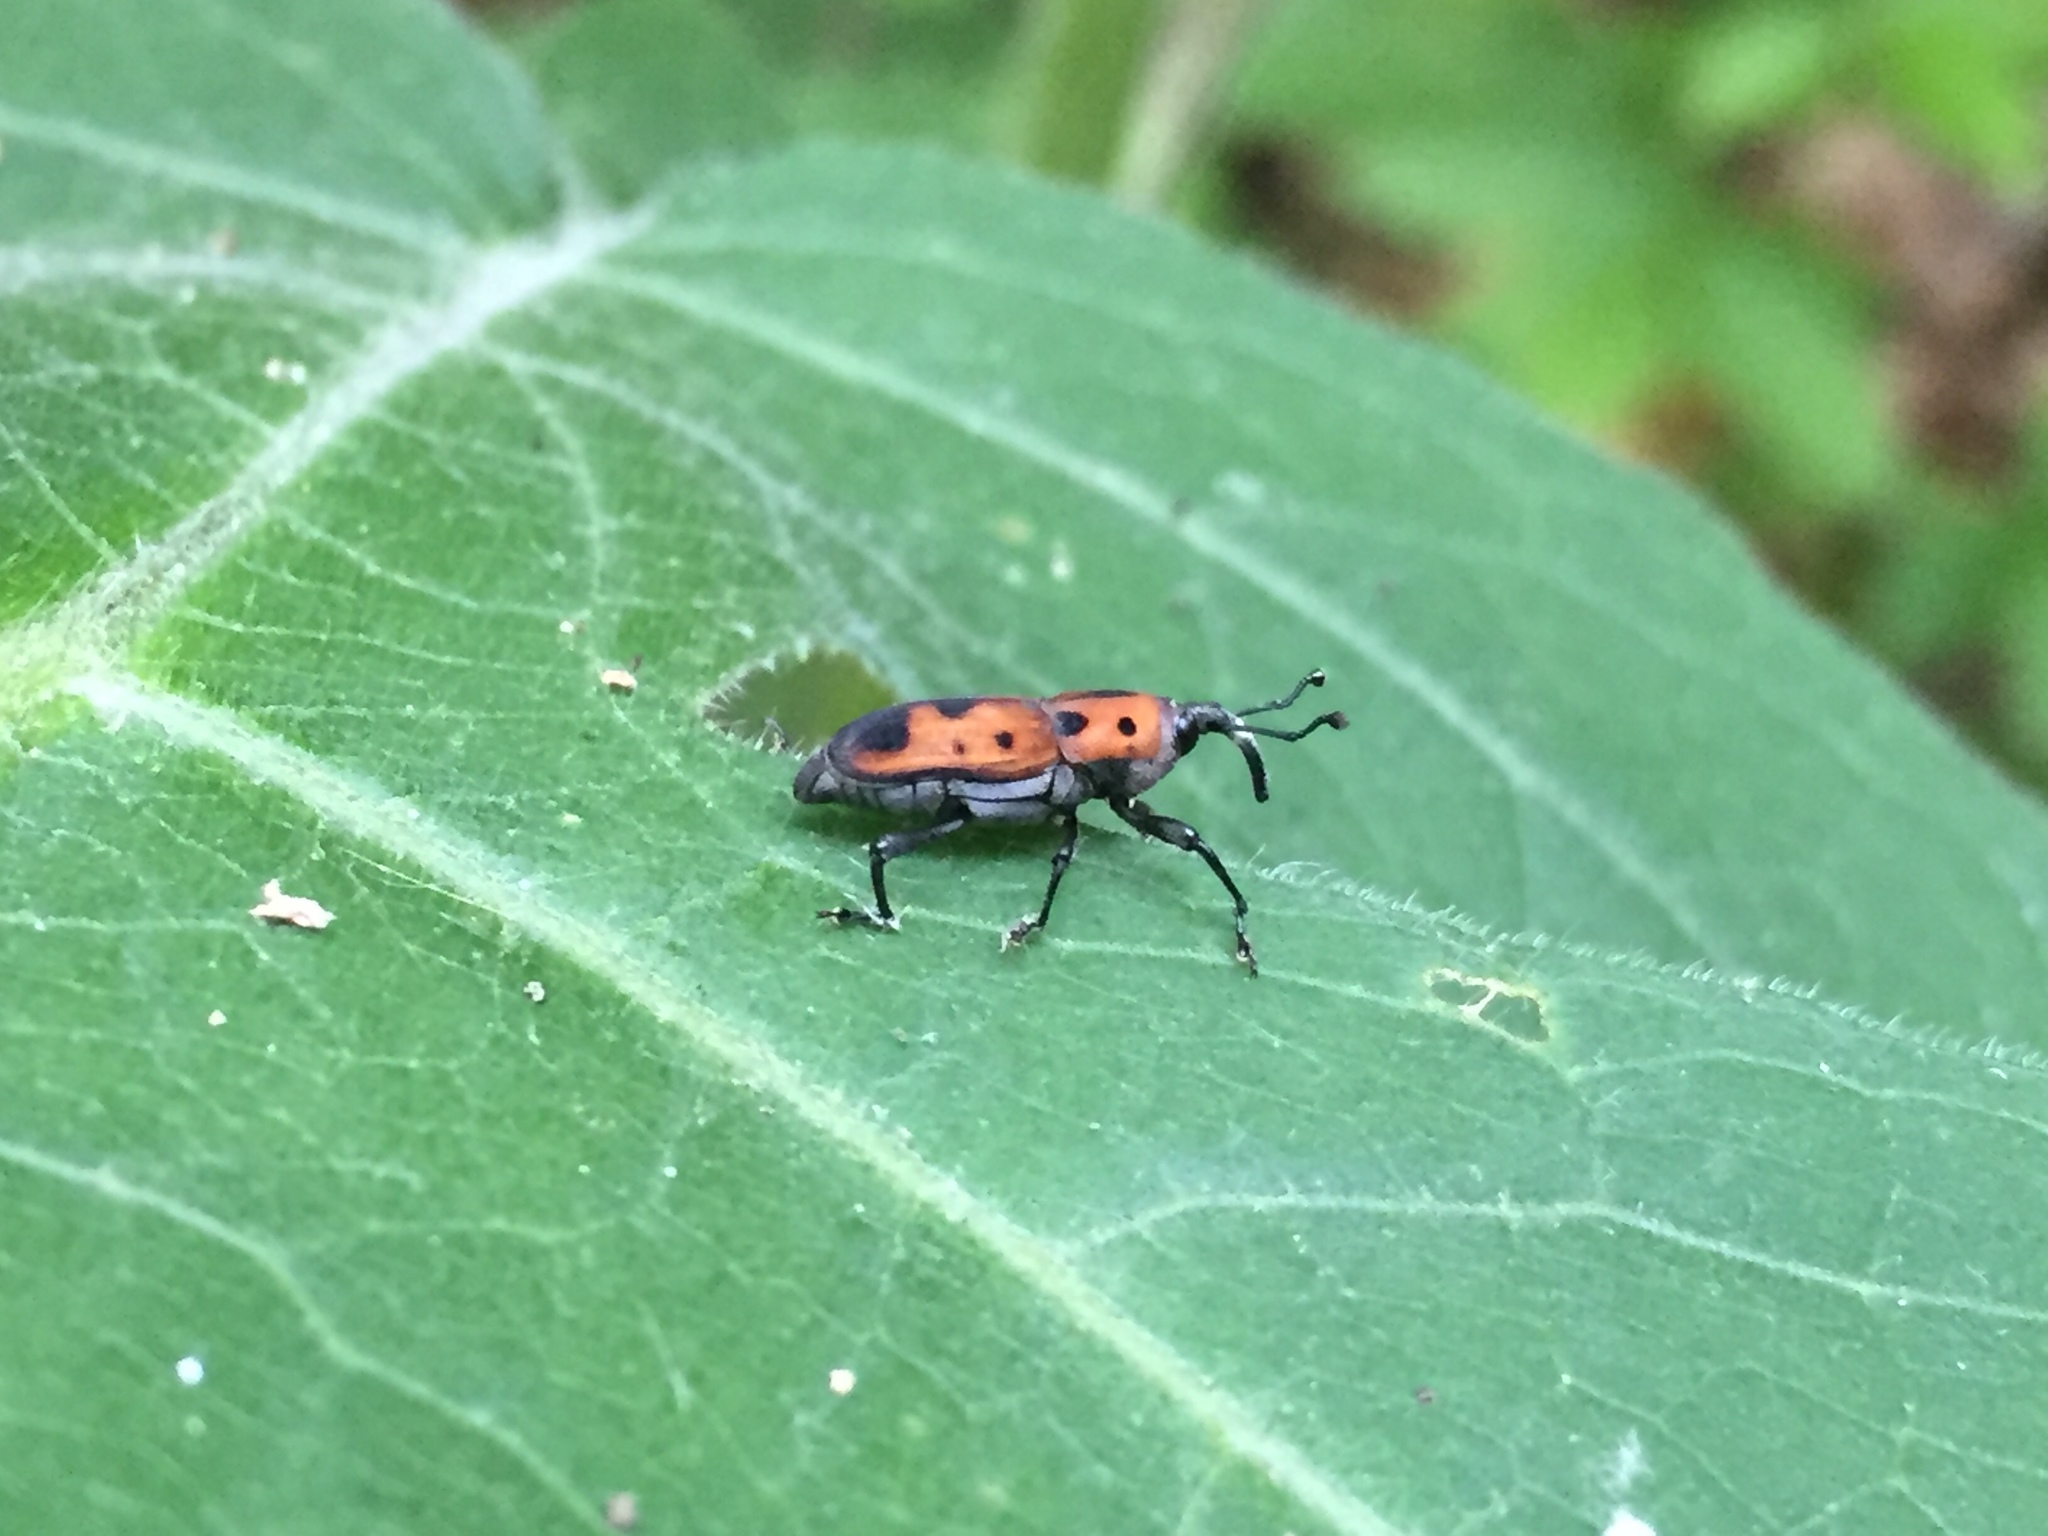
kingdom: Animalia
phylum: Arthropoda
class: Insecta
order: Coleoptera
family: Dryophthoridae
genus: Rhodobaenus
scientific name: Rhodobaenus quinquepunctatus
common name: Cocklebur weevil
